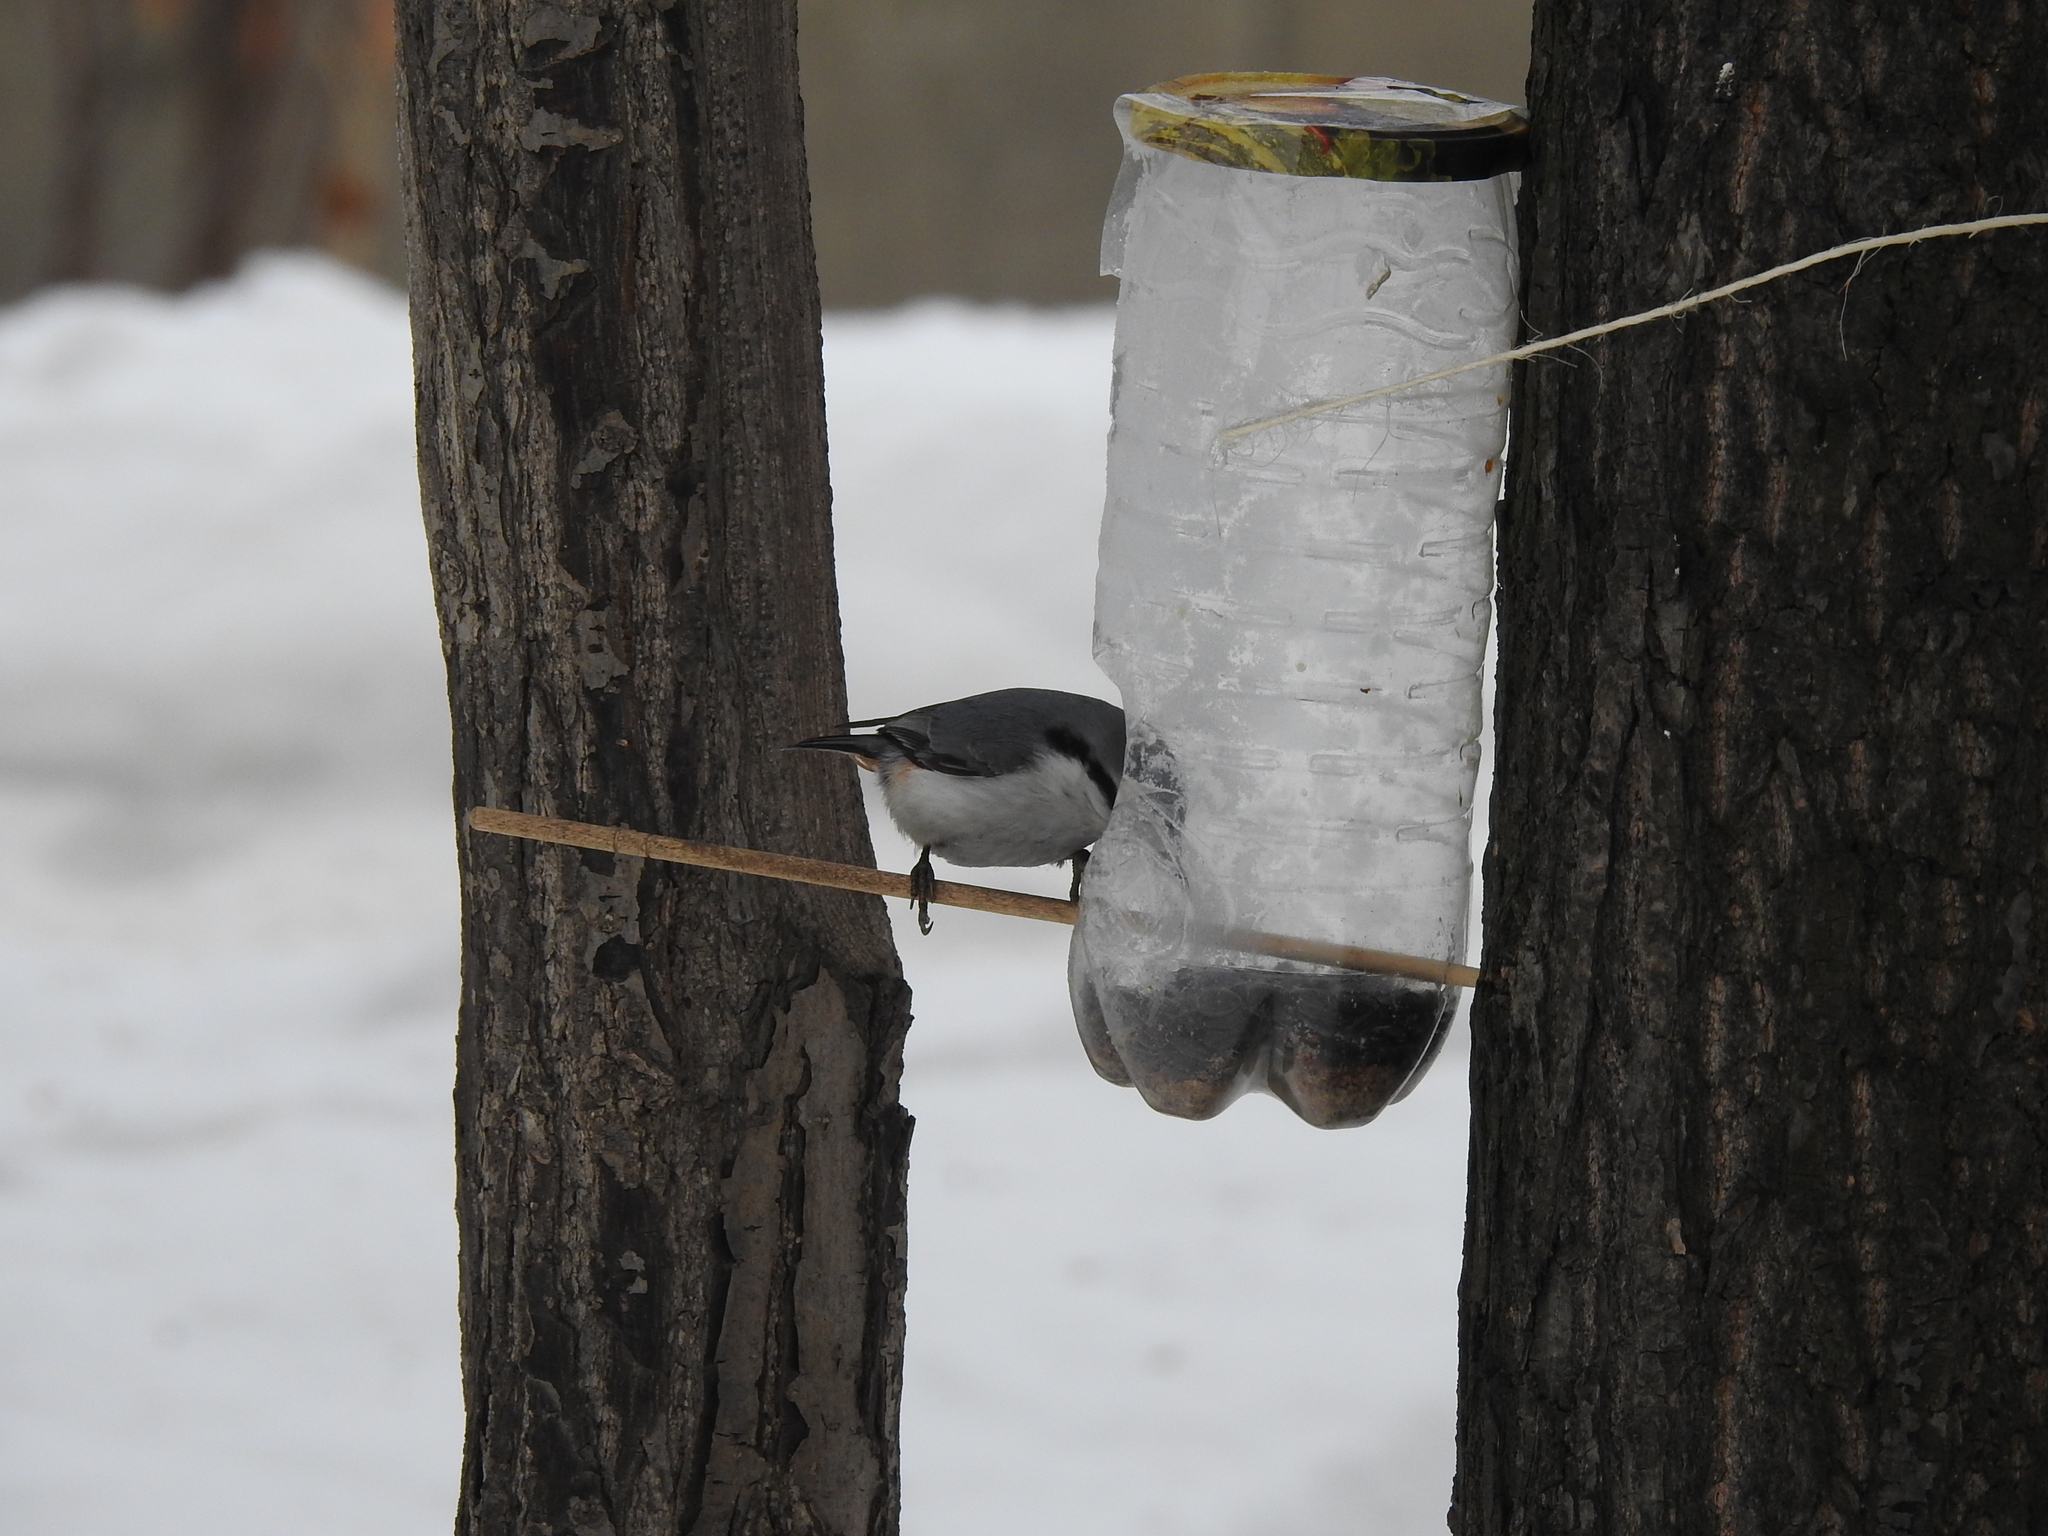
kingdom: Animalia
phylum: Chordata
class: Aves
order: Passeriformes
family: Sittidae
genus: Sitta
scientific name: Sitta europaea
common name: Eurasian nuthatch
